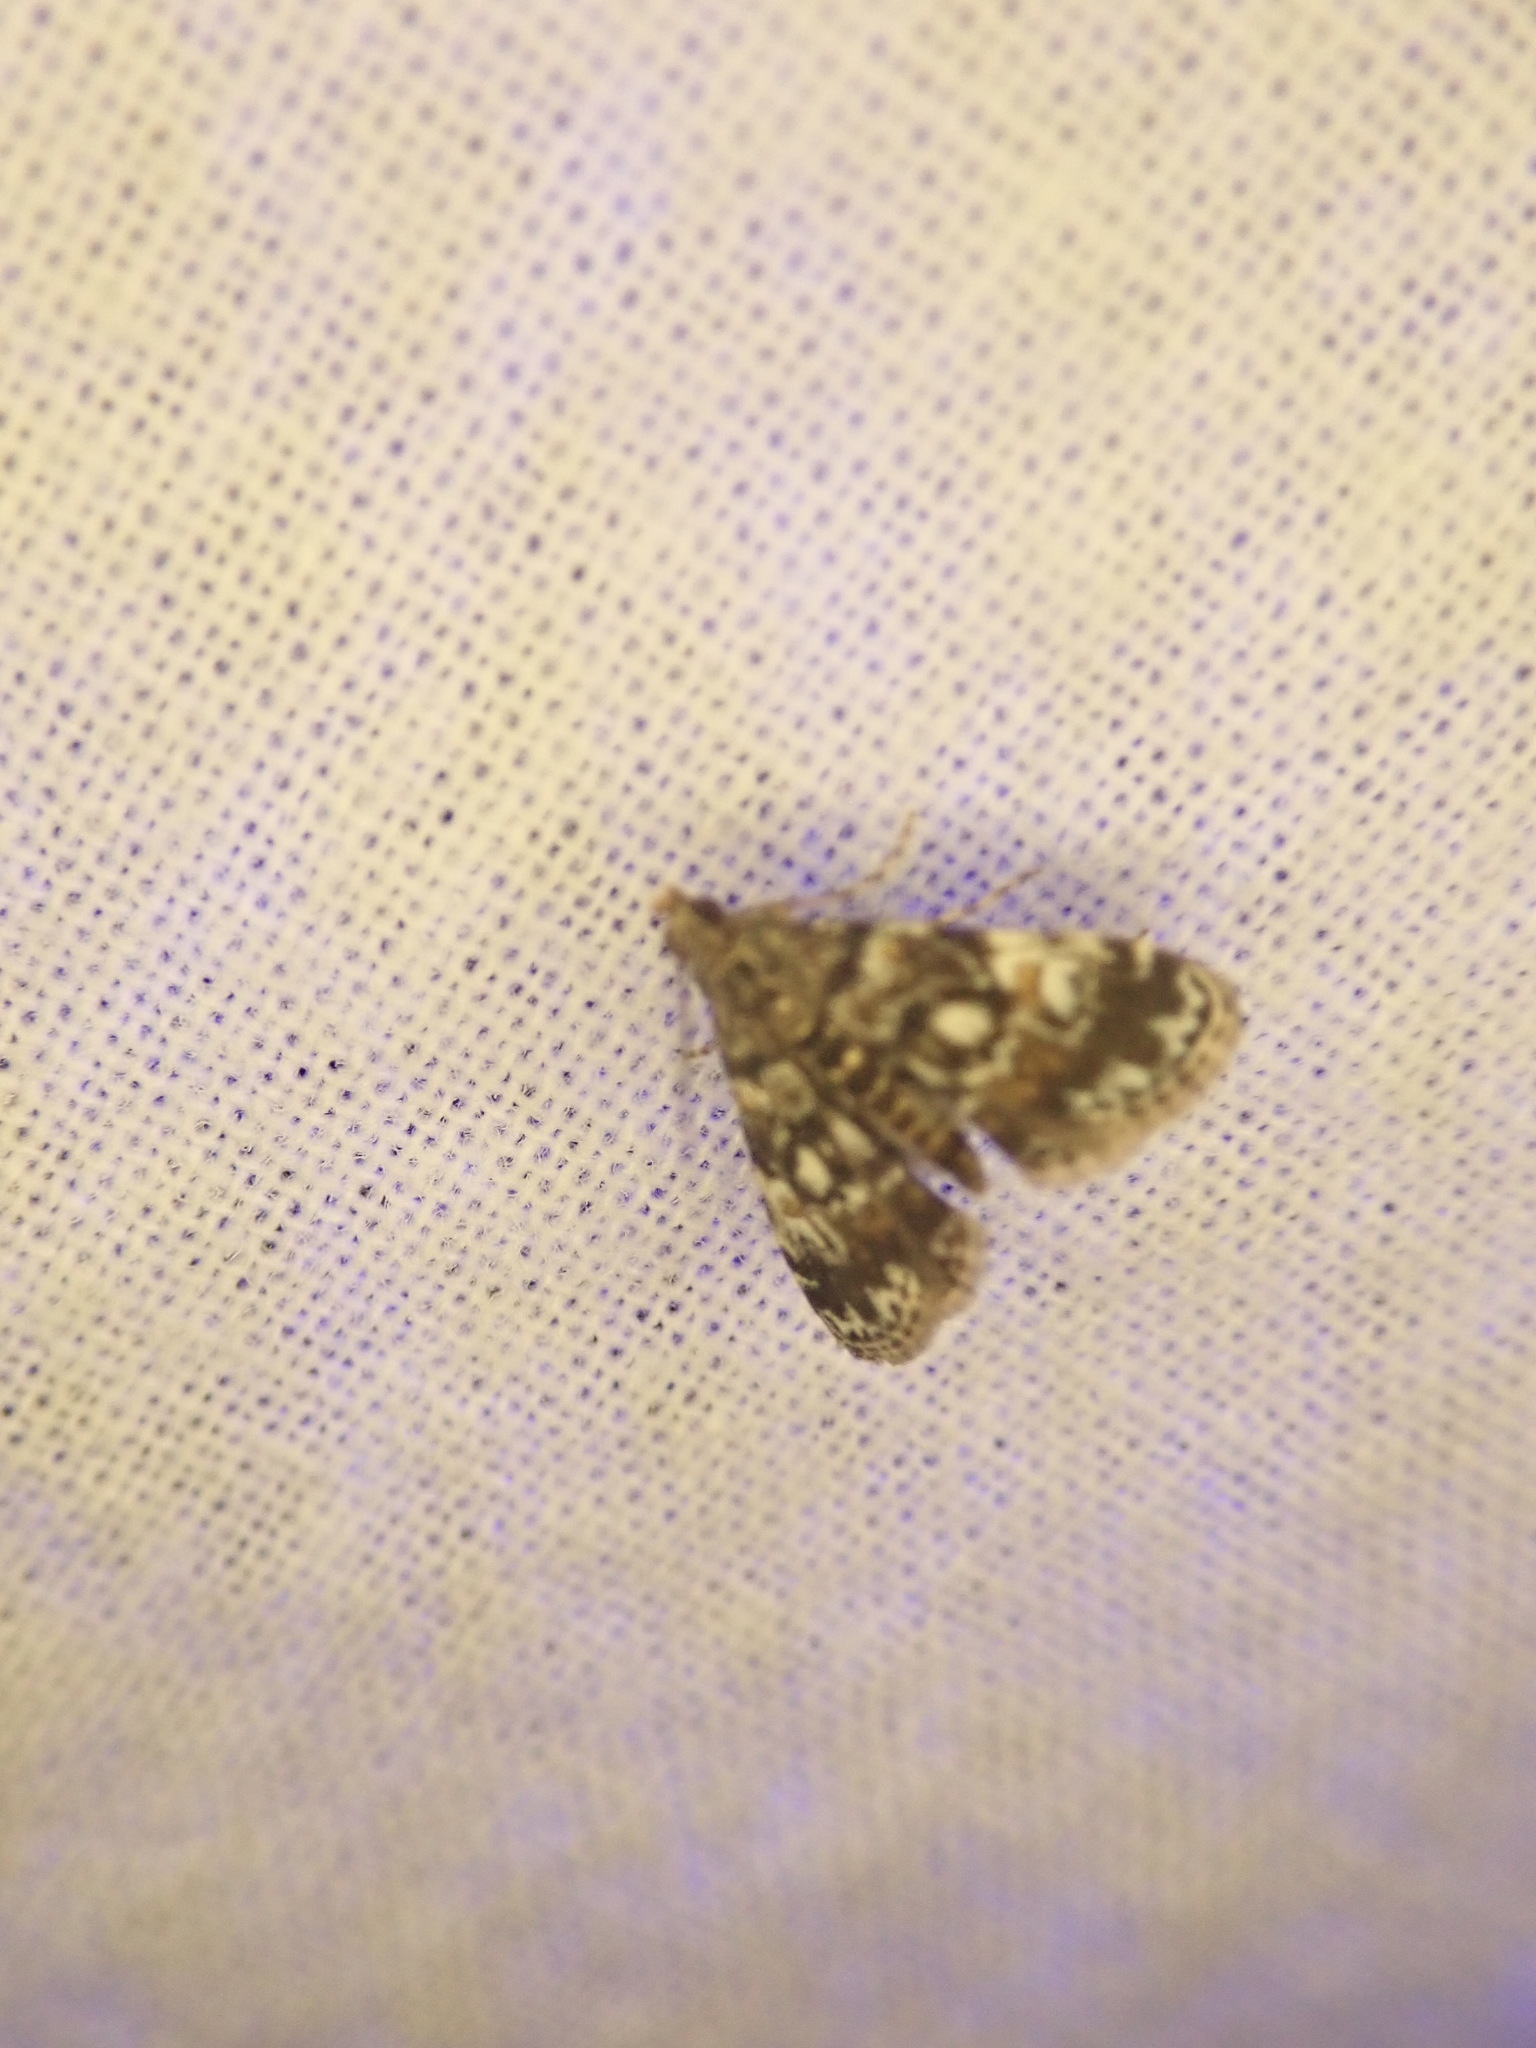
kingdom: Animalia
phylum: Arthropoda
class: Insecta
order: Lepidoptera
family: Crambidae
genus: Elophila
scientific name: Elophila obliteralis
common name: Waterlily leafcutter moth
